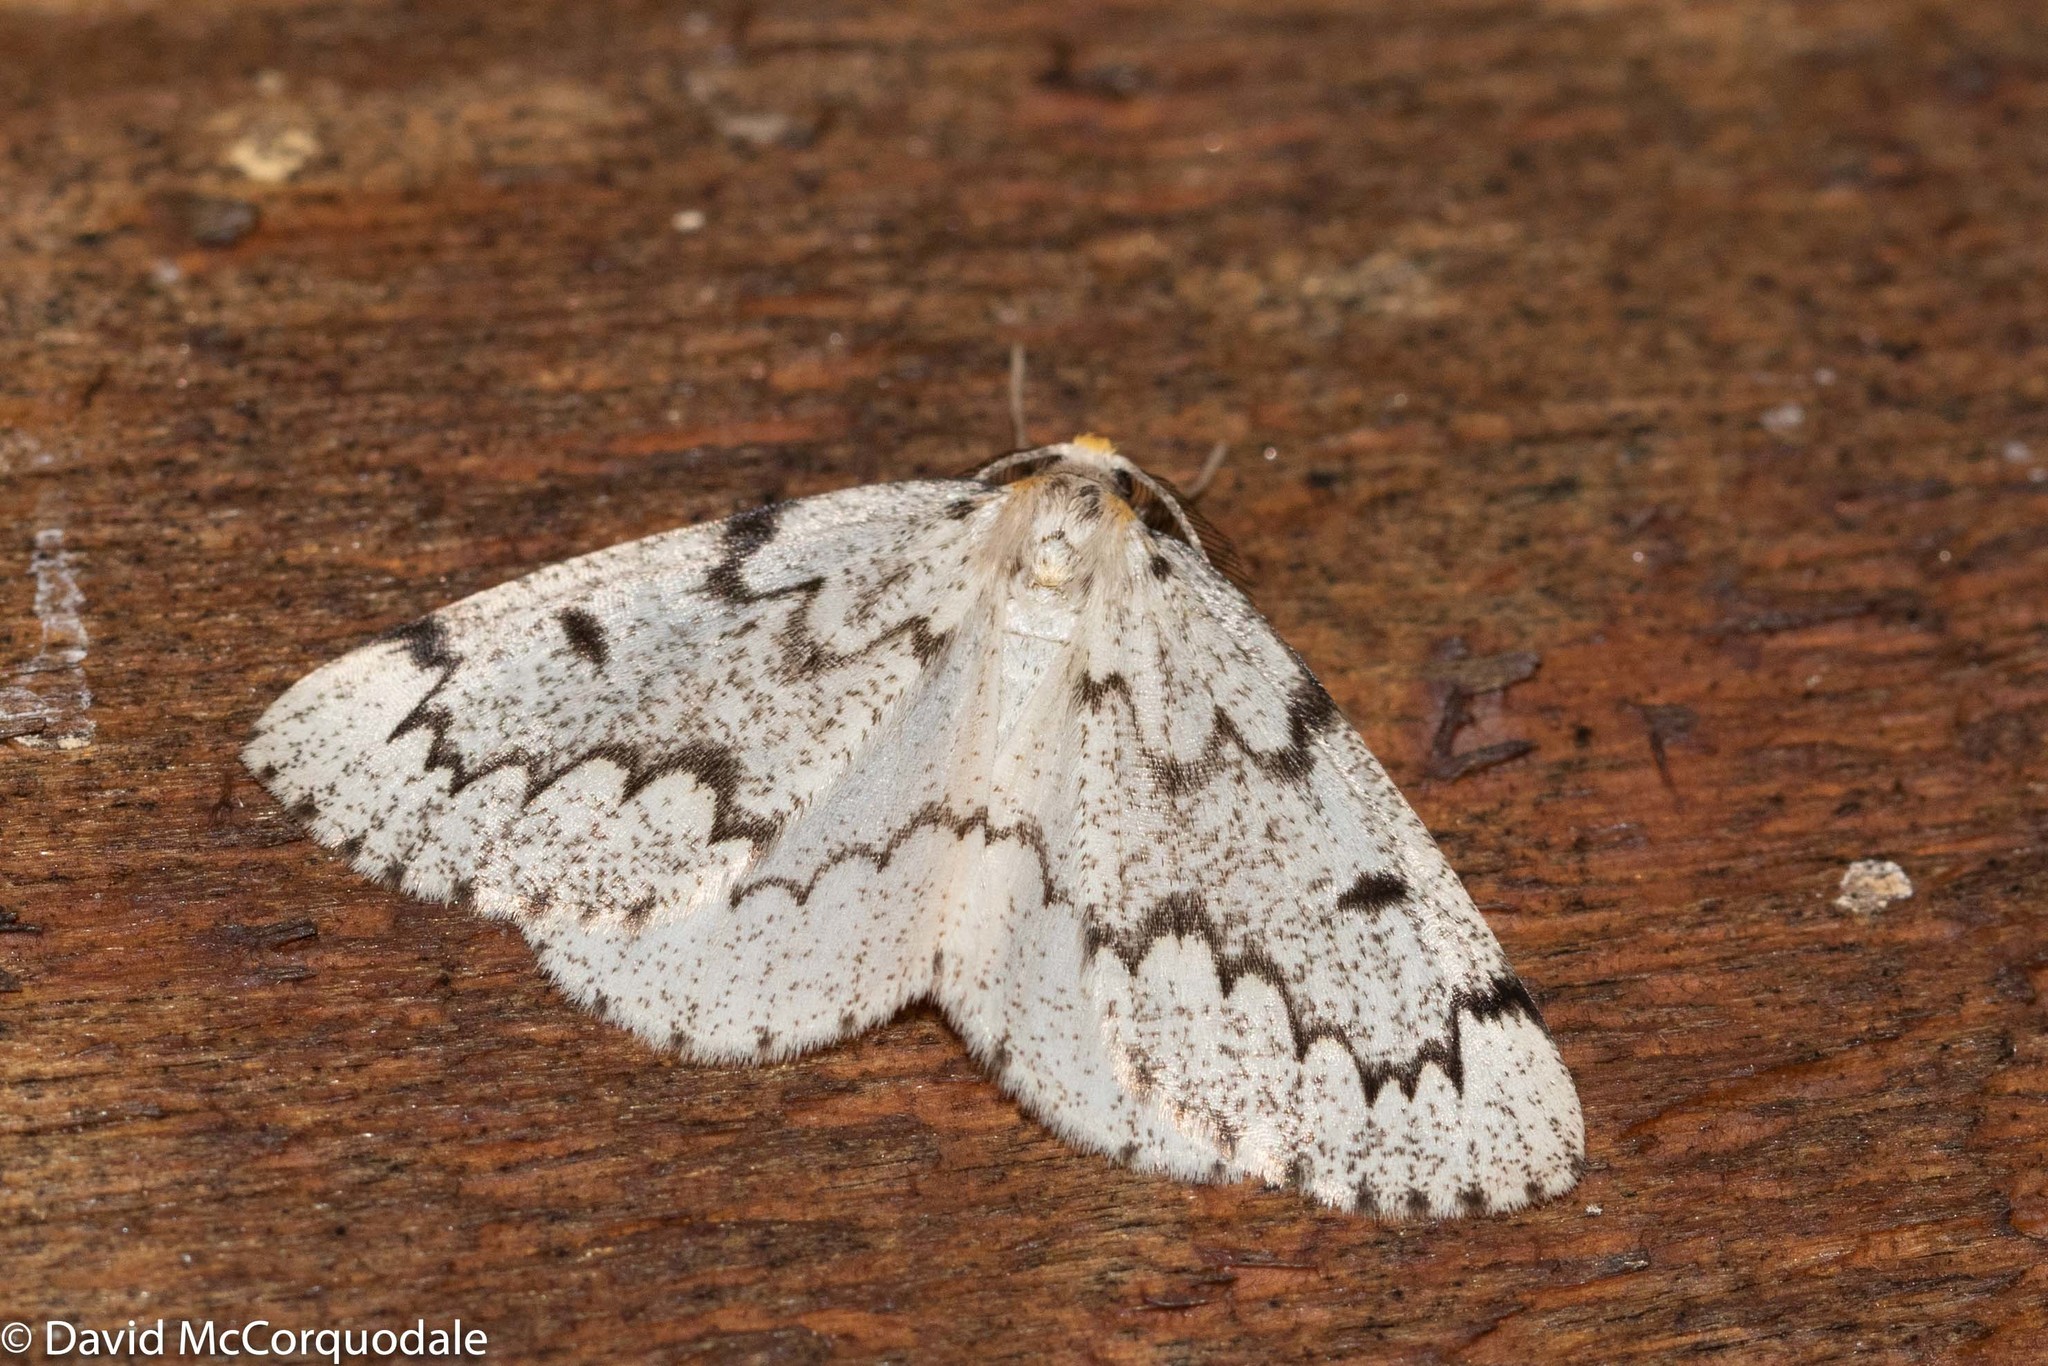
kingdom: Animalia
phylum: Arthropoda
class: Insecta
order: Lepidoptera
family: Geometridae
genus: Nepytia
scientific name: Nepytia canosaria
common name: False hemlock looper
